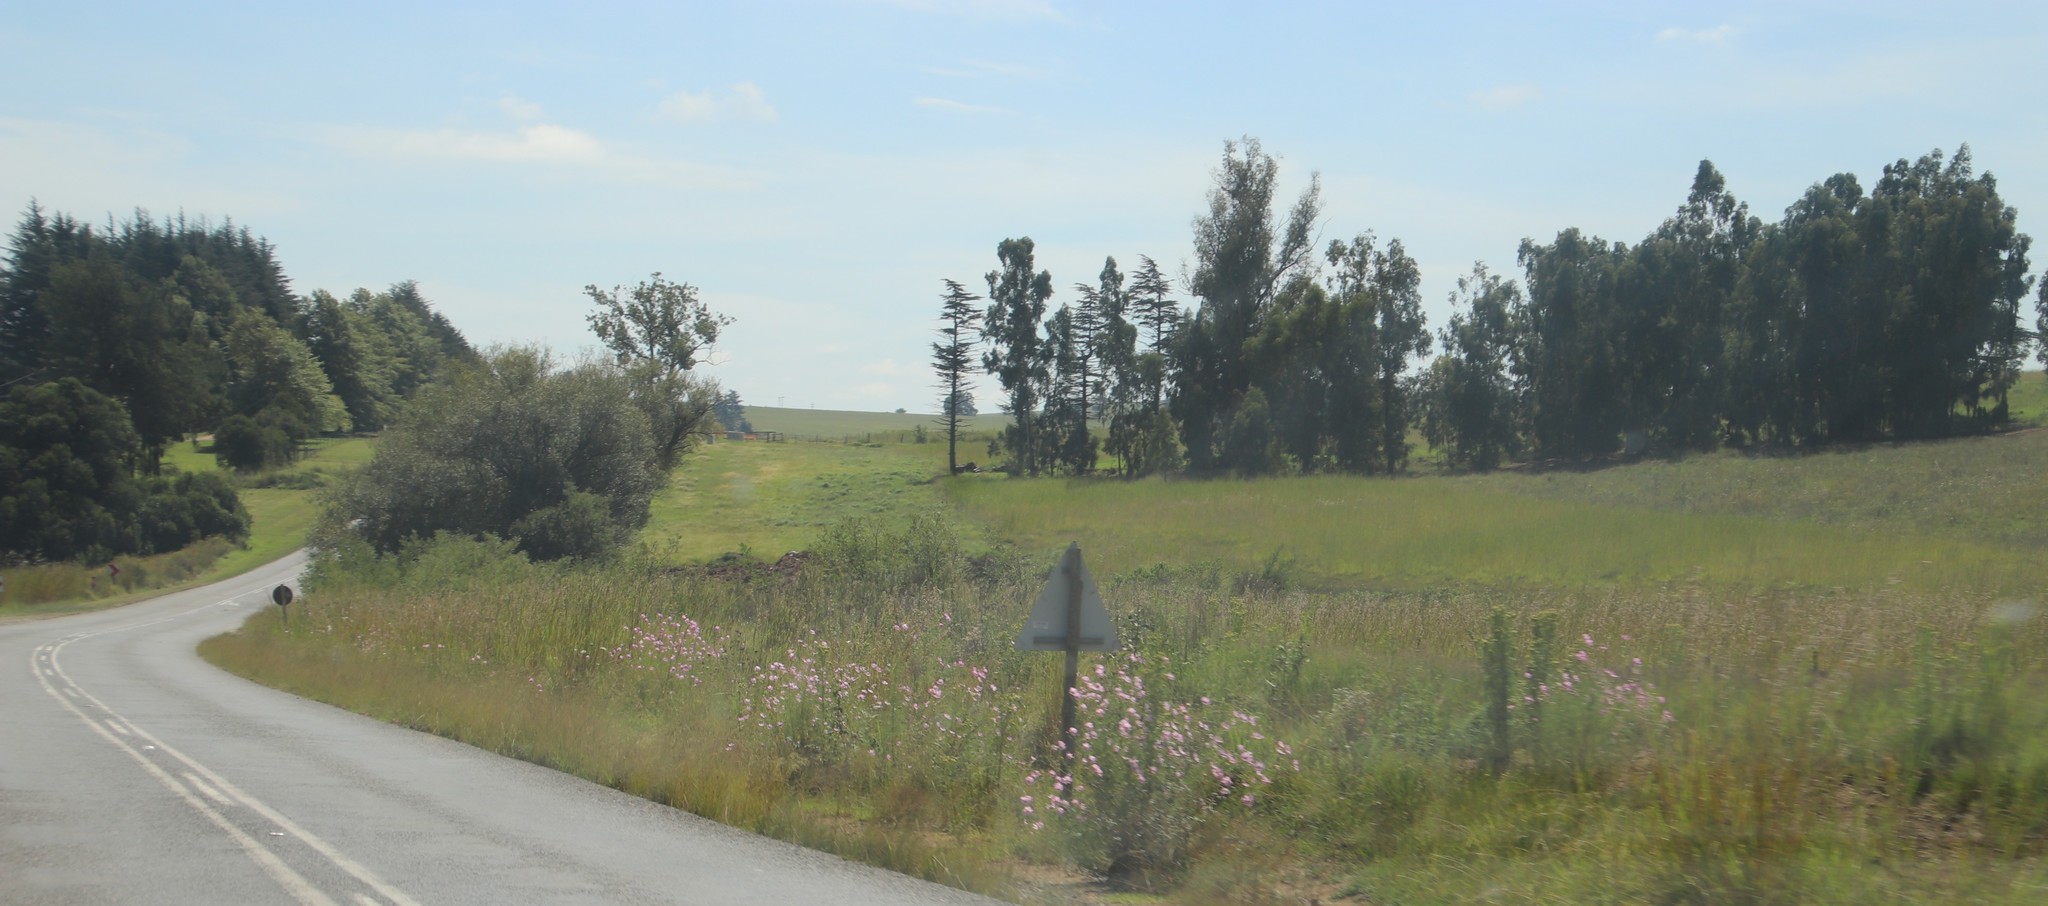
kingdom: Plantae
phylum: Tracheophyta
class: Magnoliopsida
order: Asterales
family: Asteraceae
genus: Cosmos
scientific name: Cosmos bipinnatus
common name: Garden cosmos
